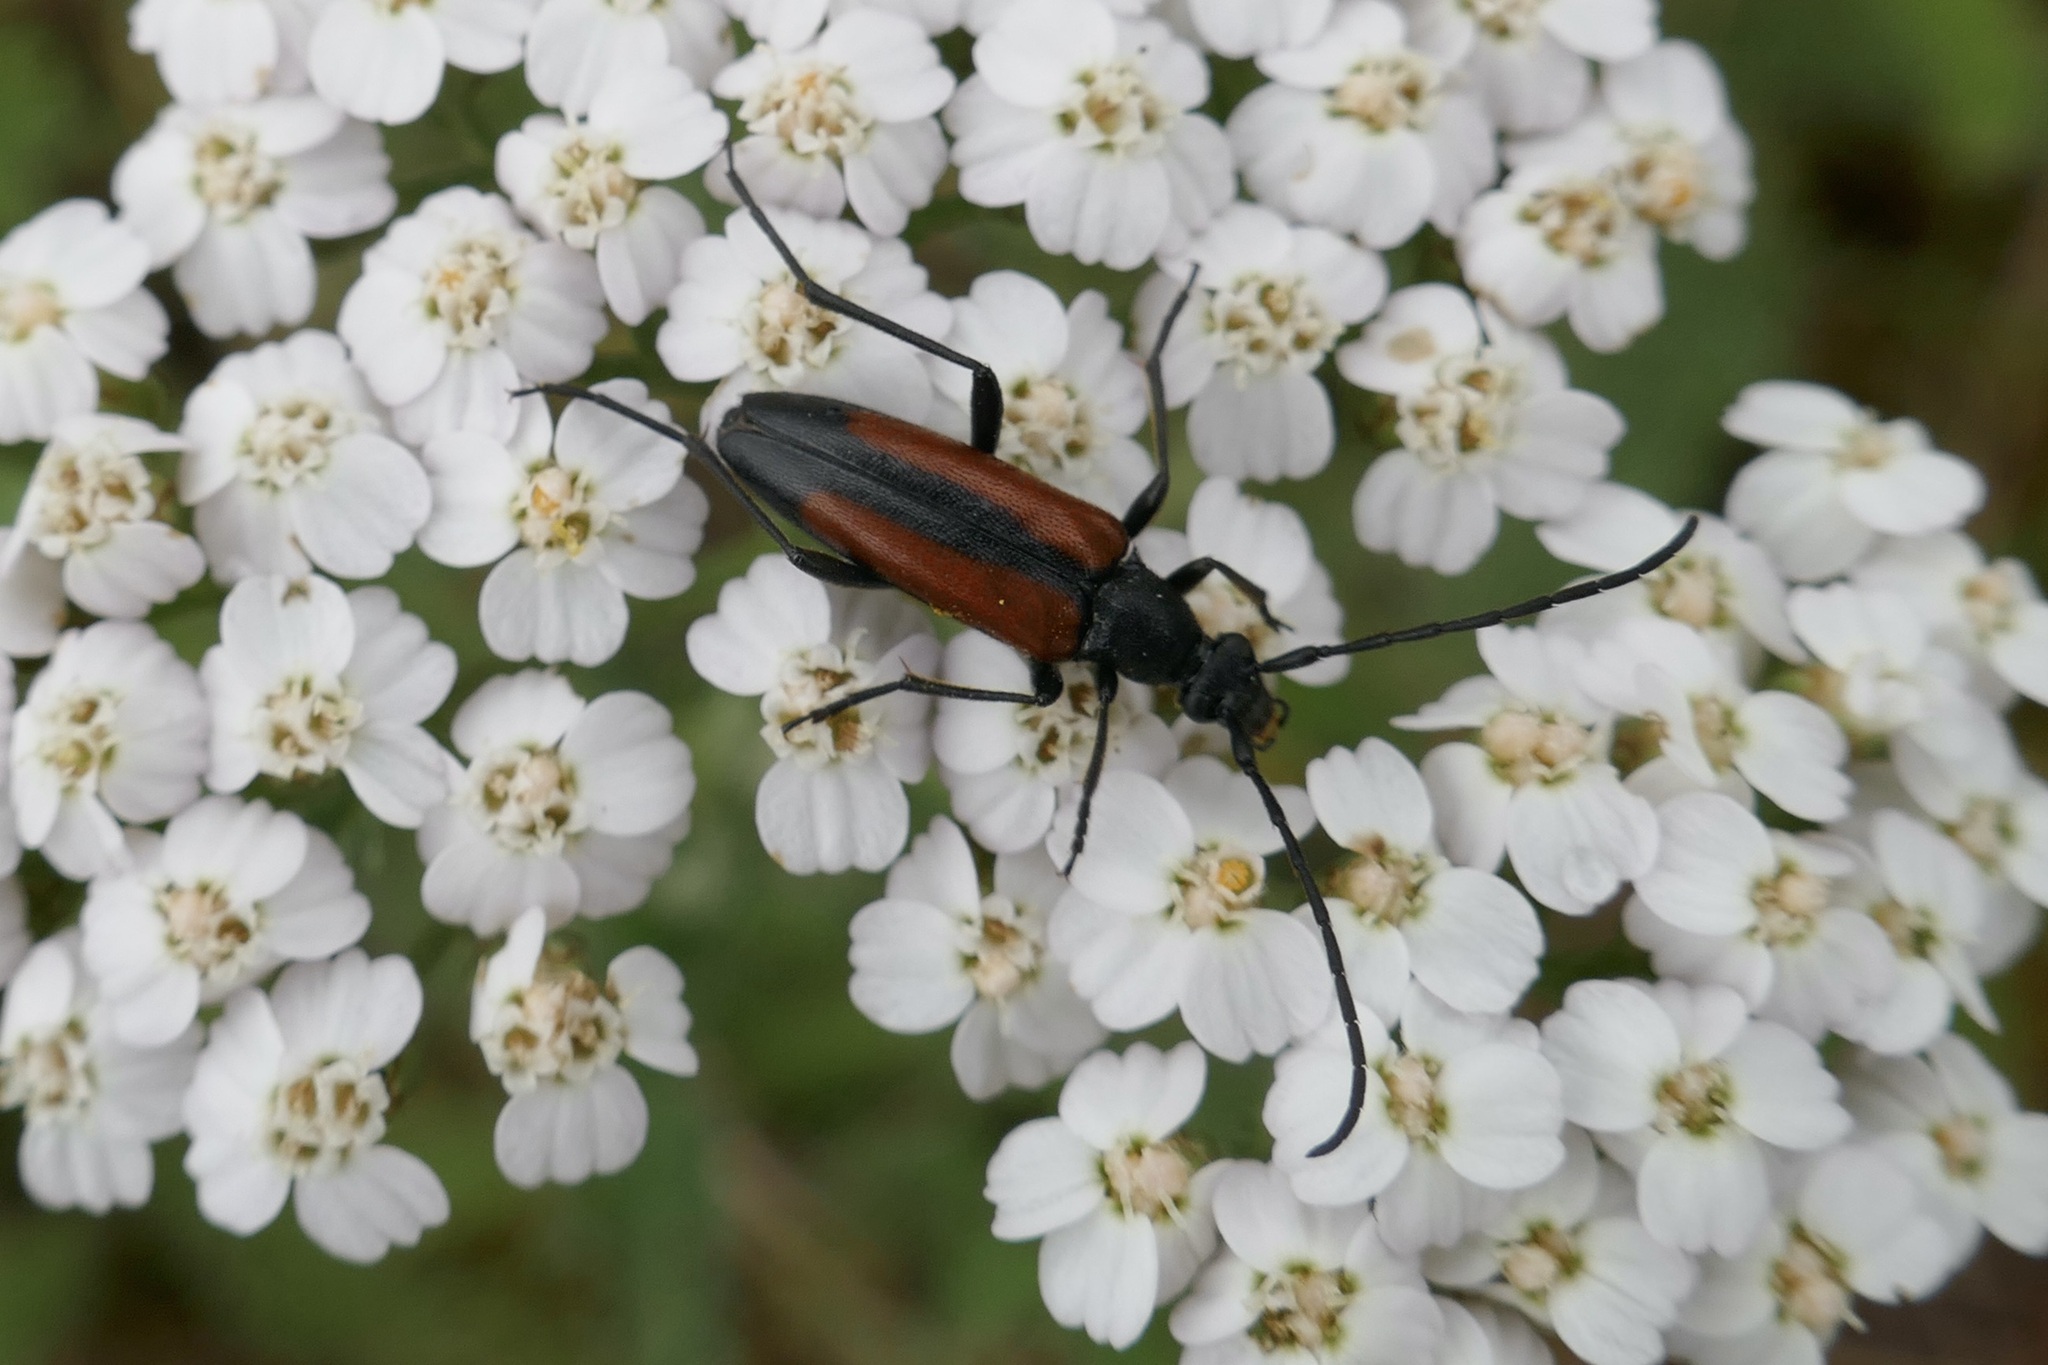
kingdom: Animalia
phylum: Arthropoda
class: Insecta
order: Coleoptera
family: Cerambycidae
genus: Stenurella
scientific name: Stenurella melanura
